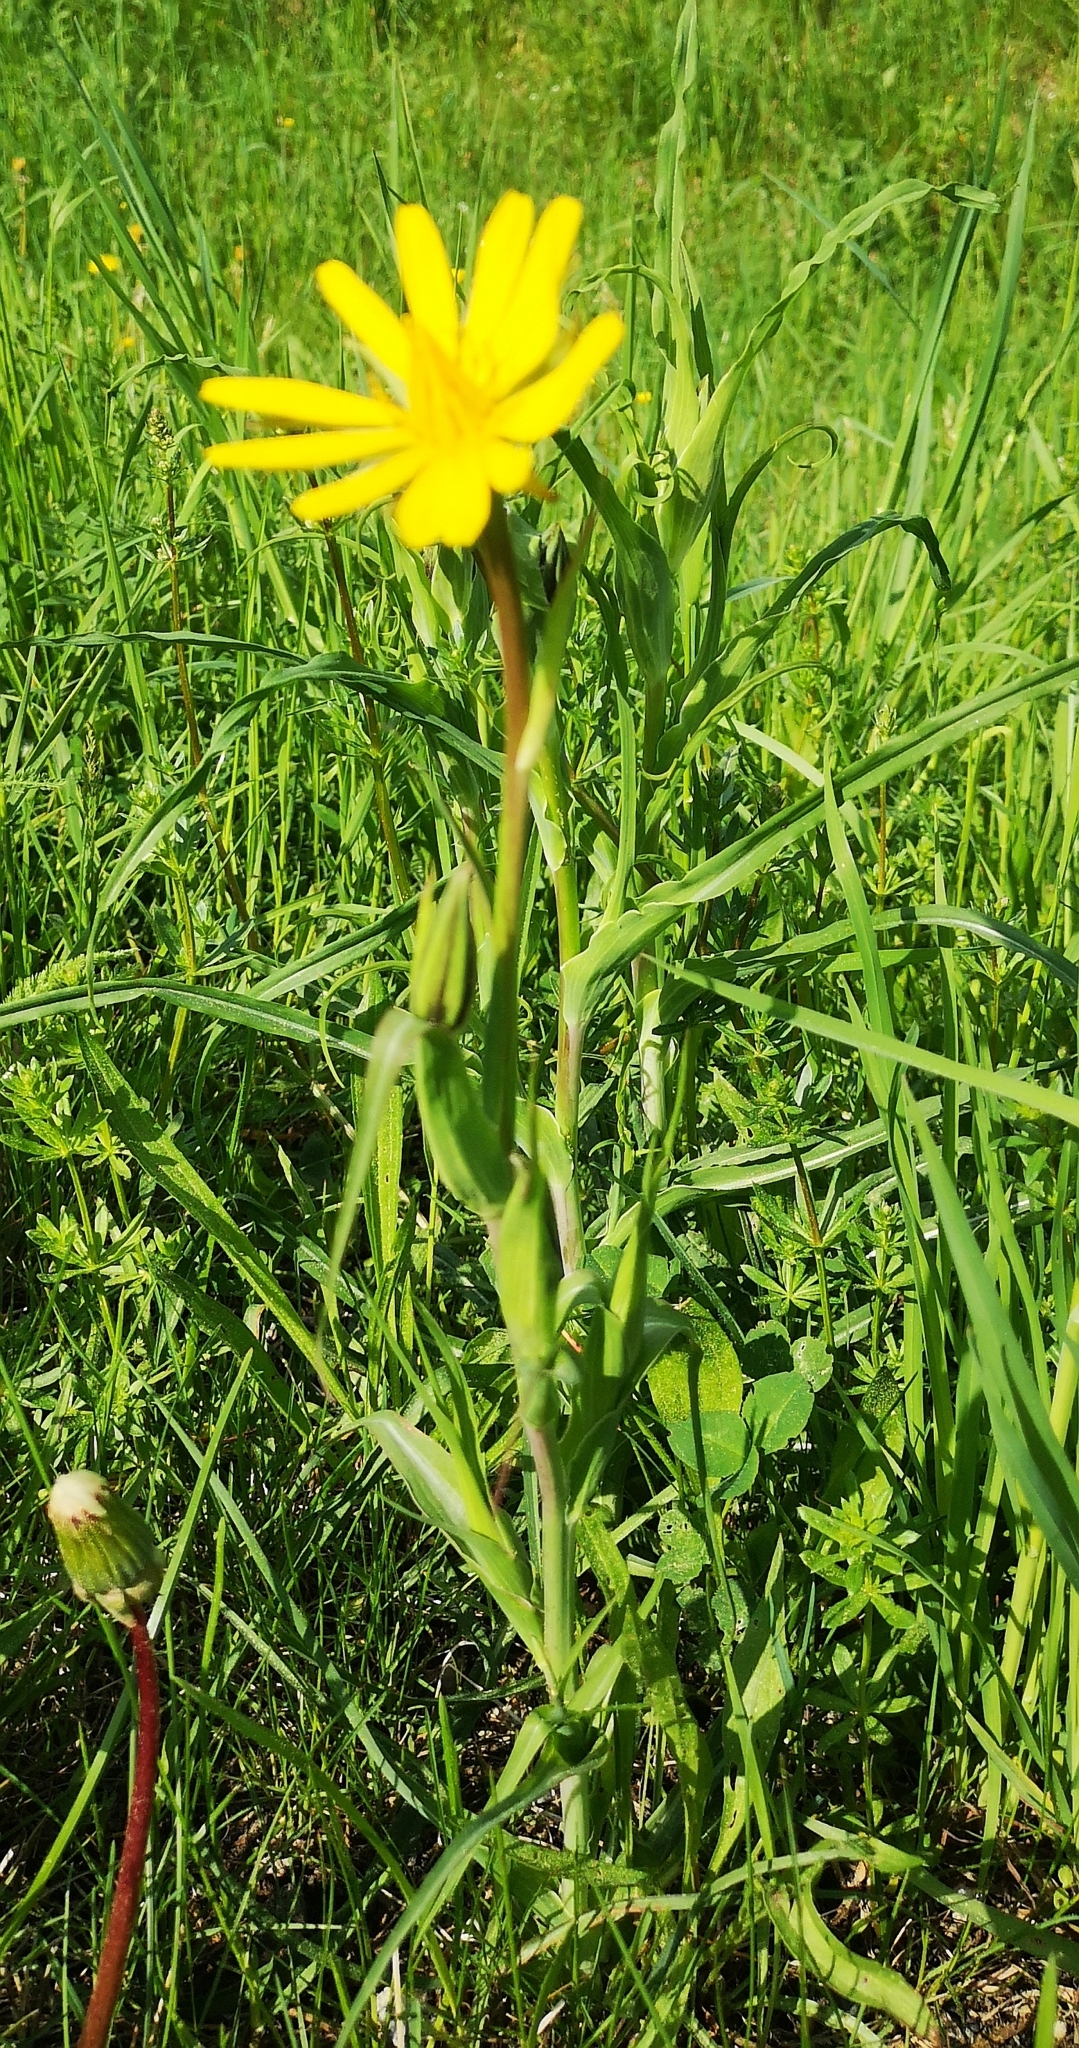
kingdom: Plantae
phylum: Tracheophyta
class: Magnoliopsida
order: Asterales
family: Asteraceae
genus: Tragopogon
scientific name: Tragopogon orientalis
